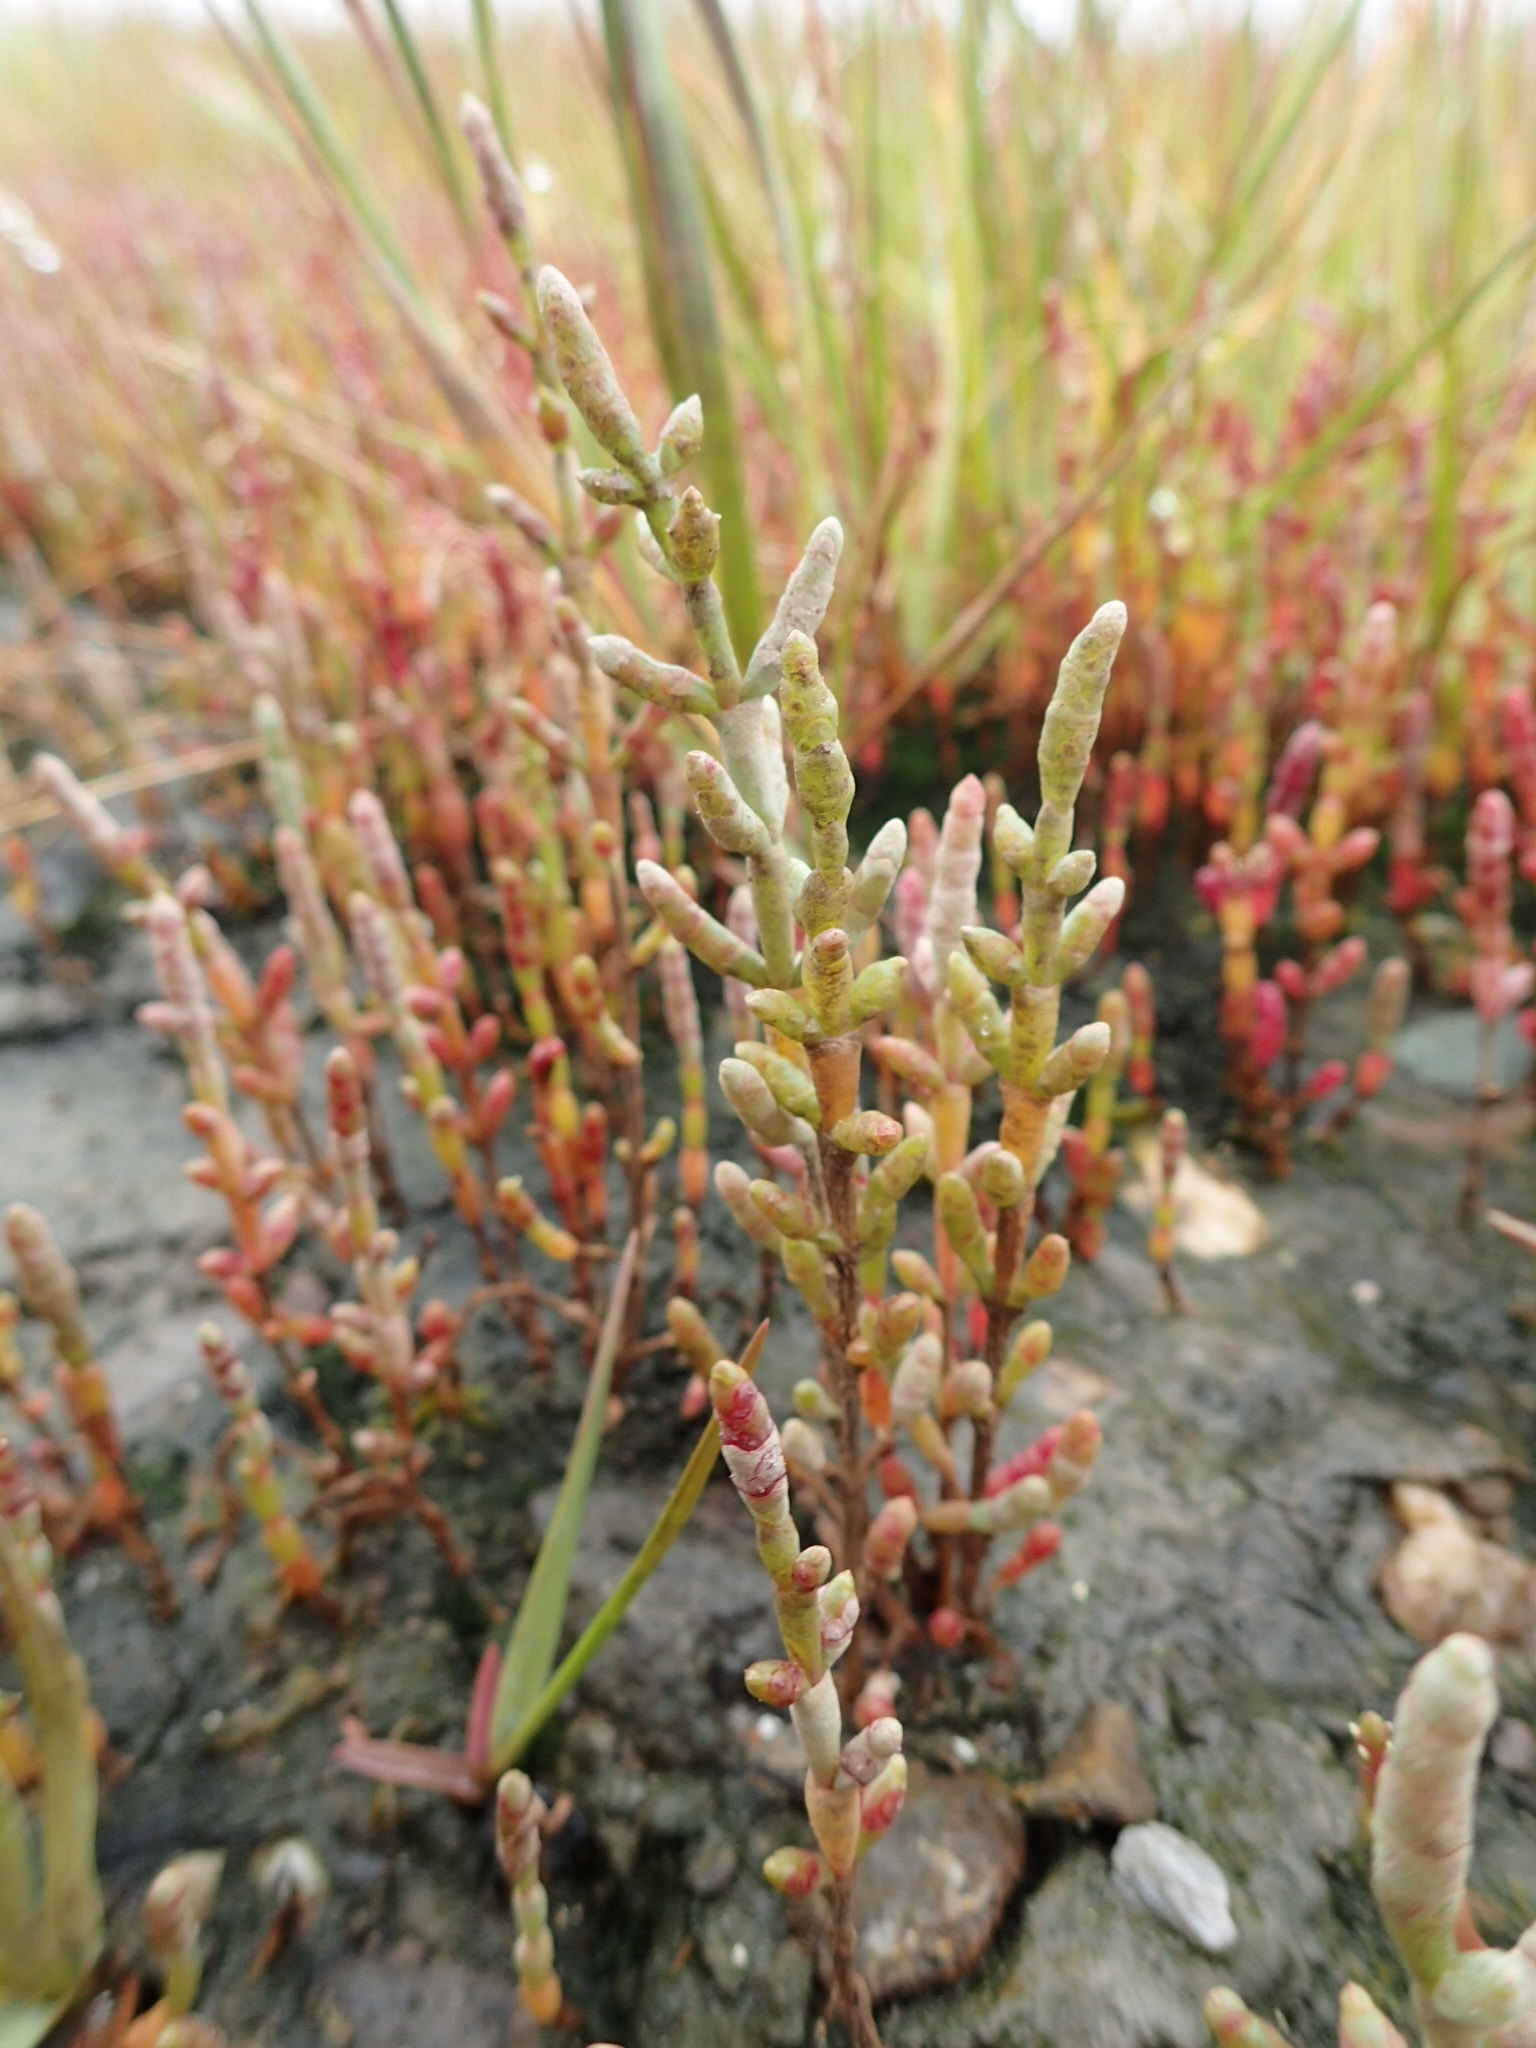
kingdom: Plantae
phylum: Tracheophyta
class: Magnoliopsida
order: Caryophyllales
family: Amaranthaceae
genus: Salicornia
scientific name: Salicornia europaea
